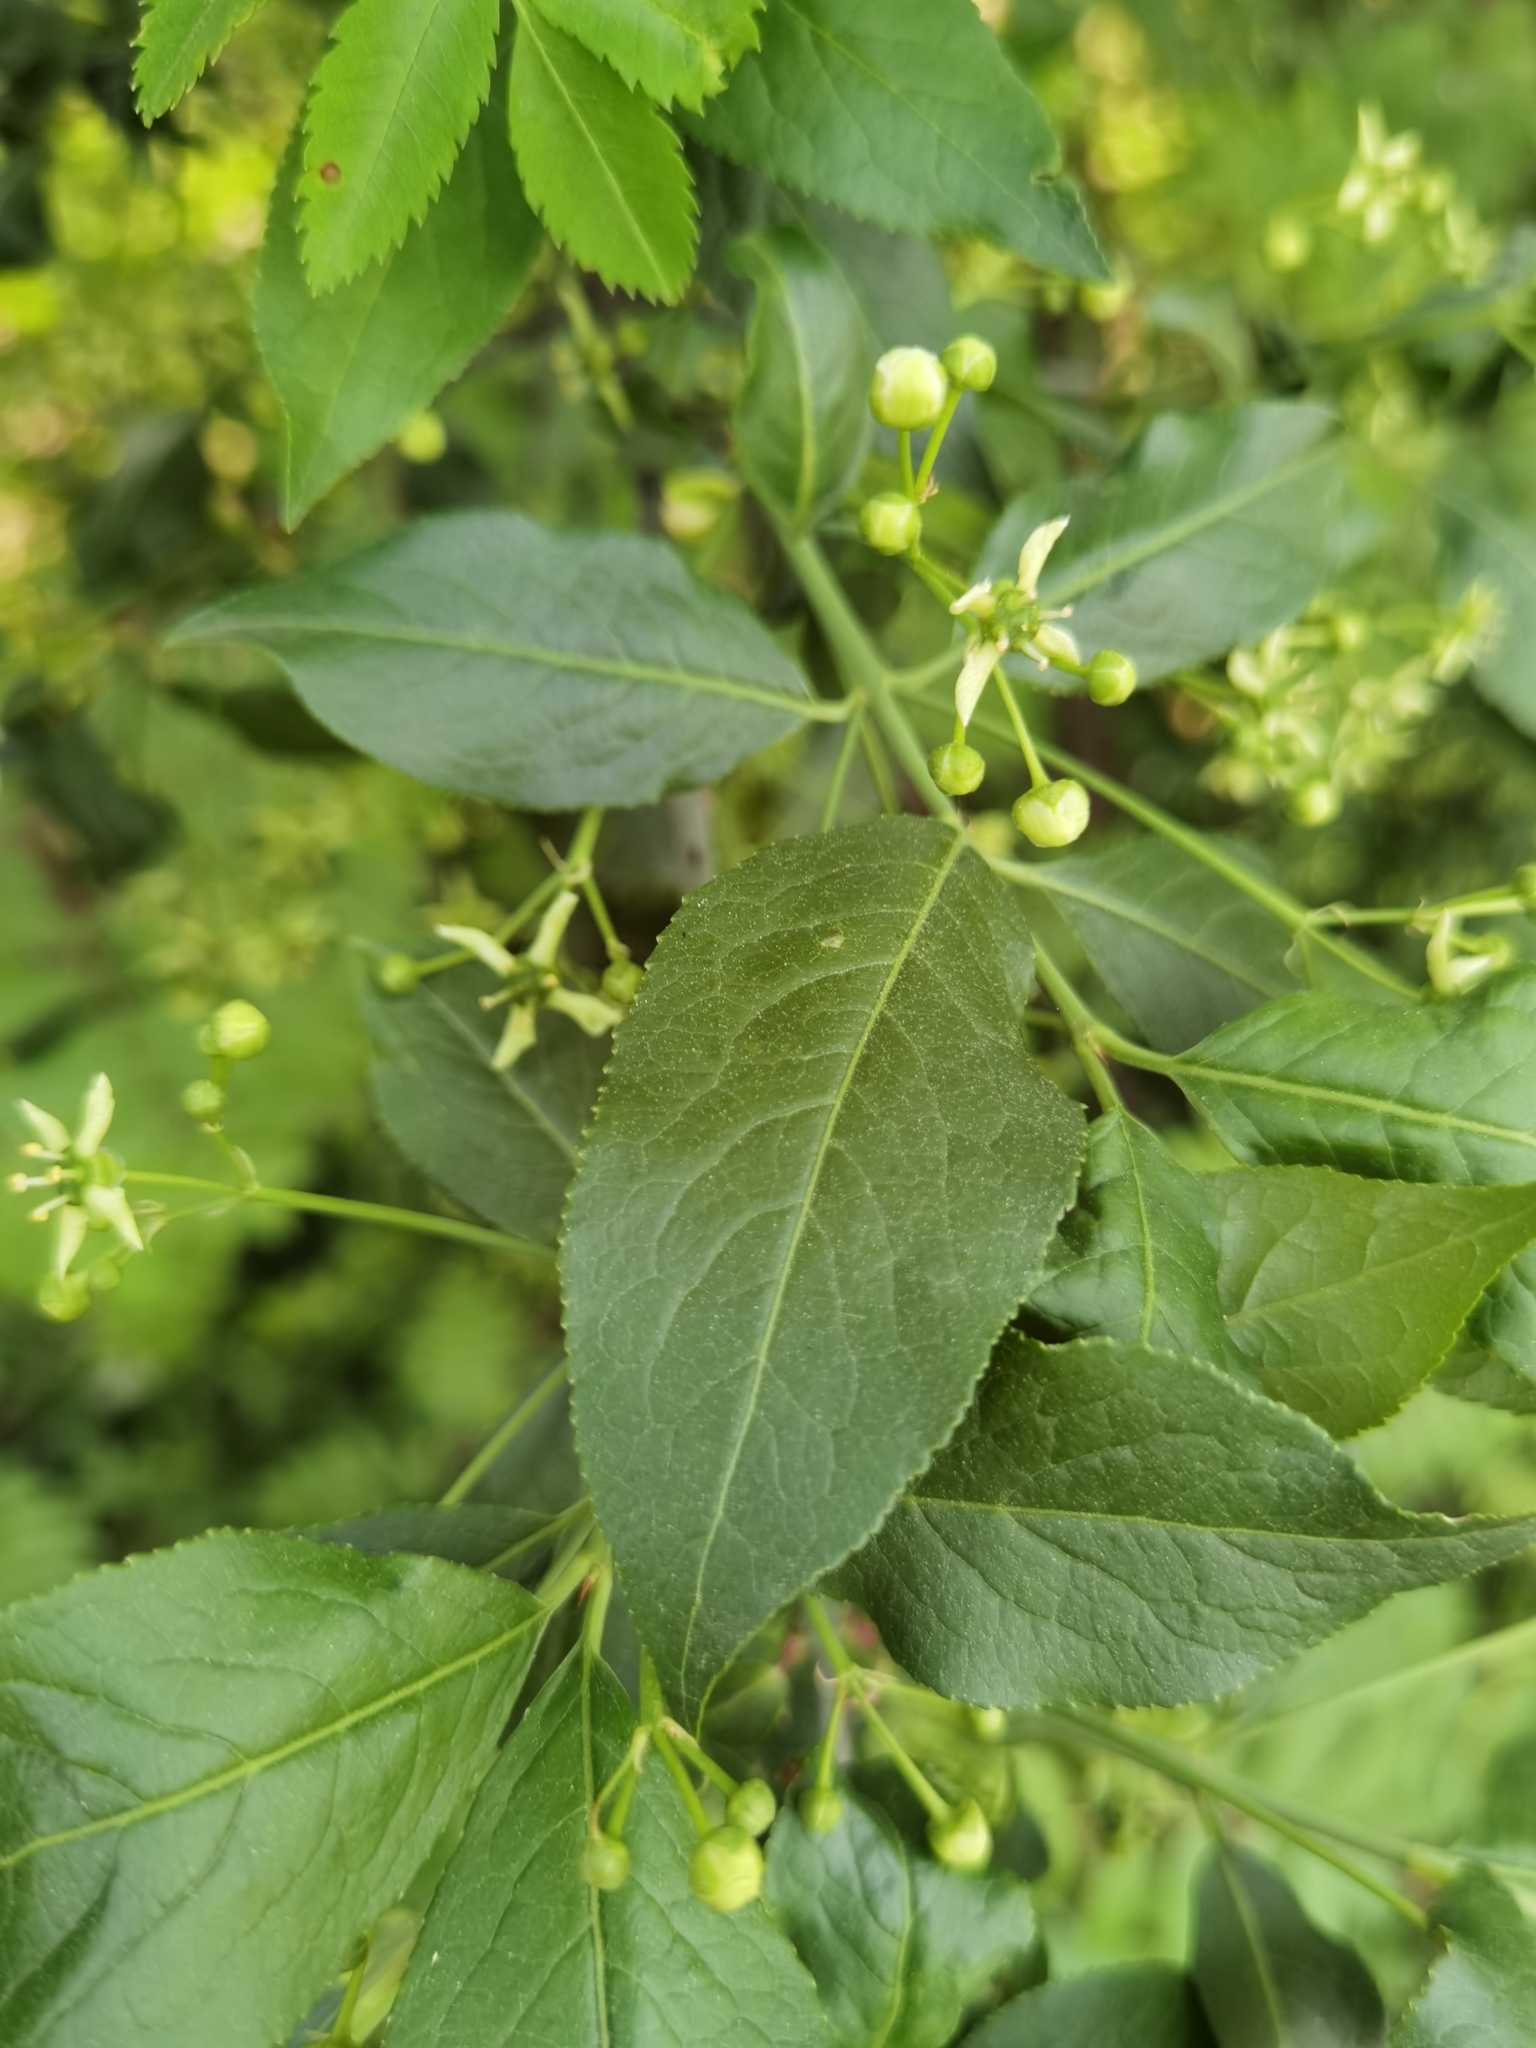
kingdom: Plantae
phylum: Tracheophyta
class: Magnoliopsida
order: Celastrales
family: Celastraceae
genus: Euonymus
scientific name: Euonymus europaeus
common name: Spindle
